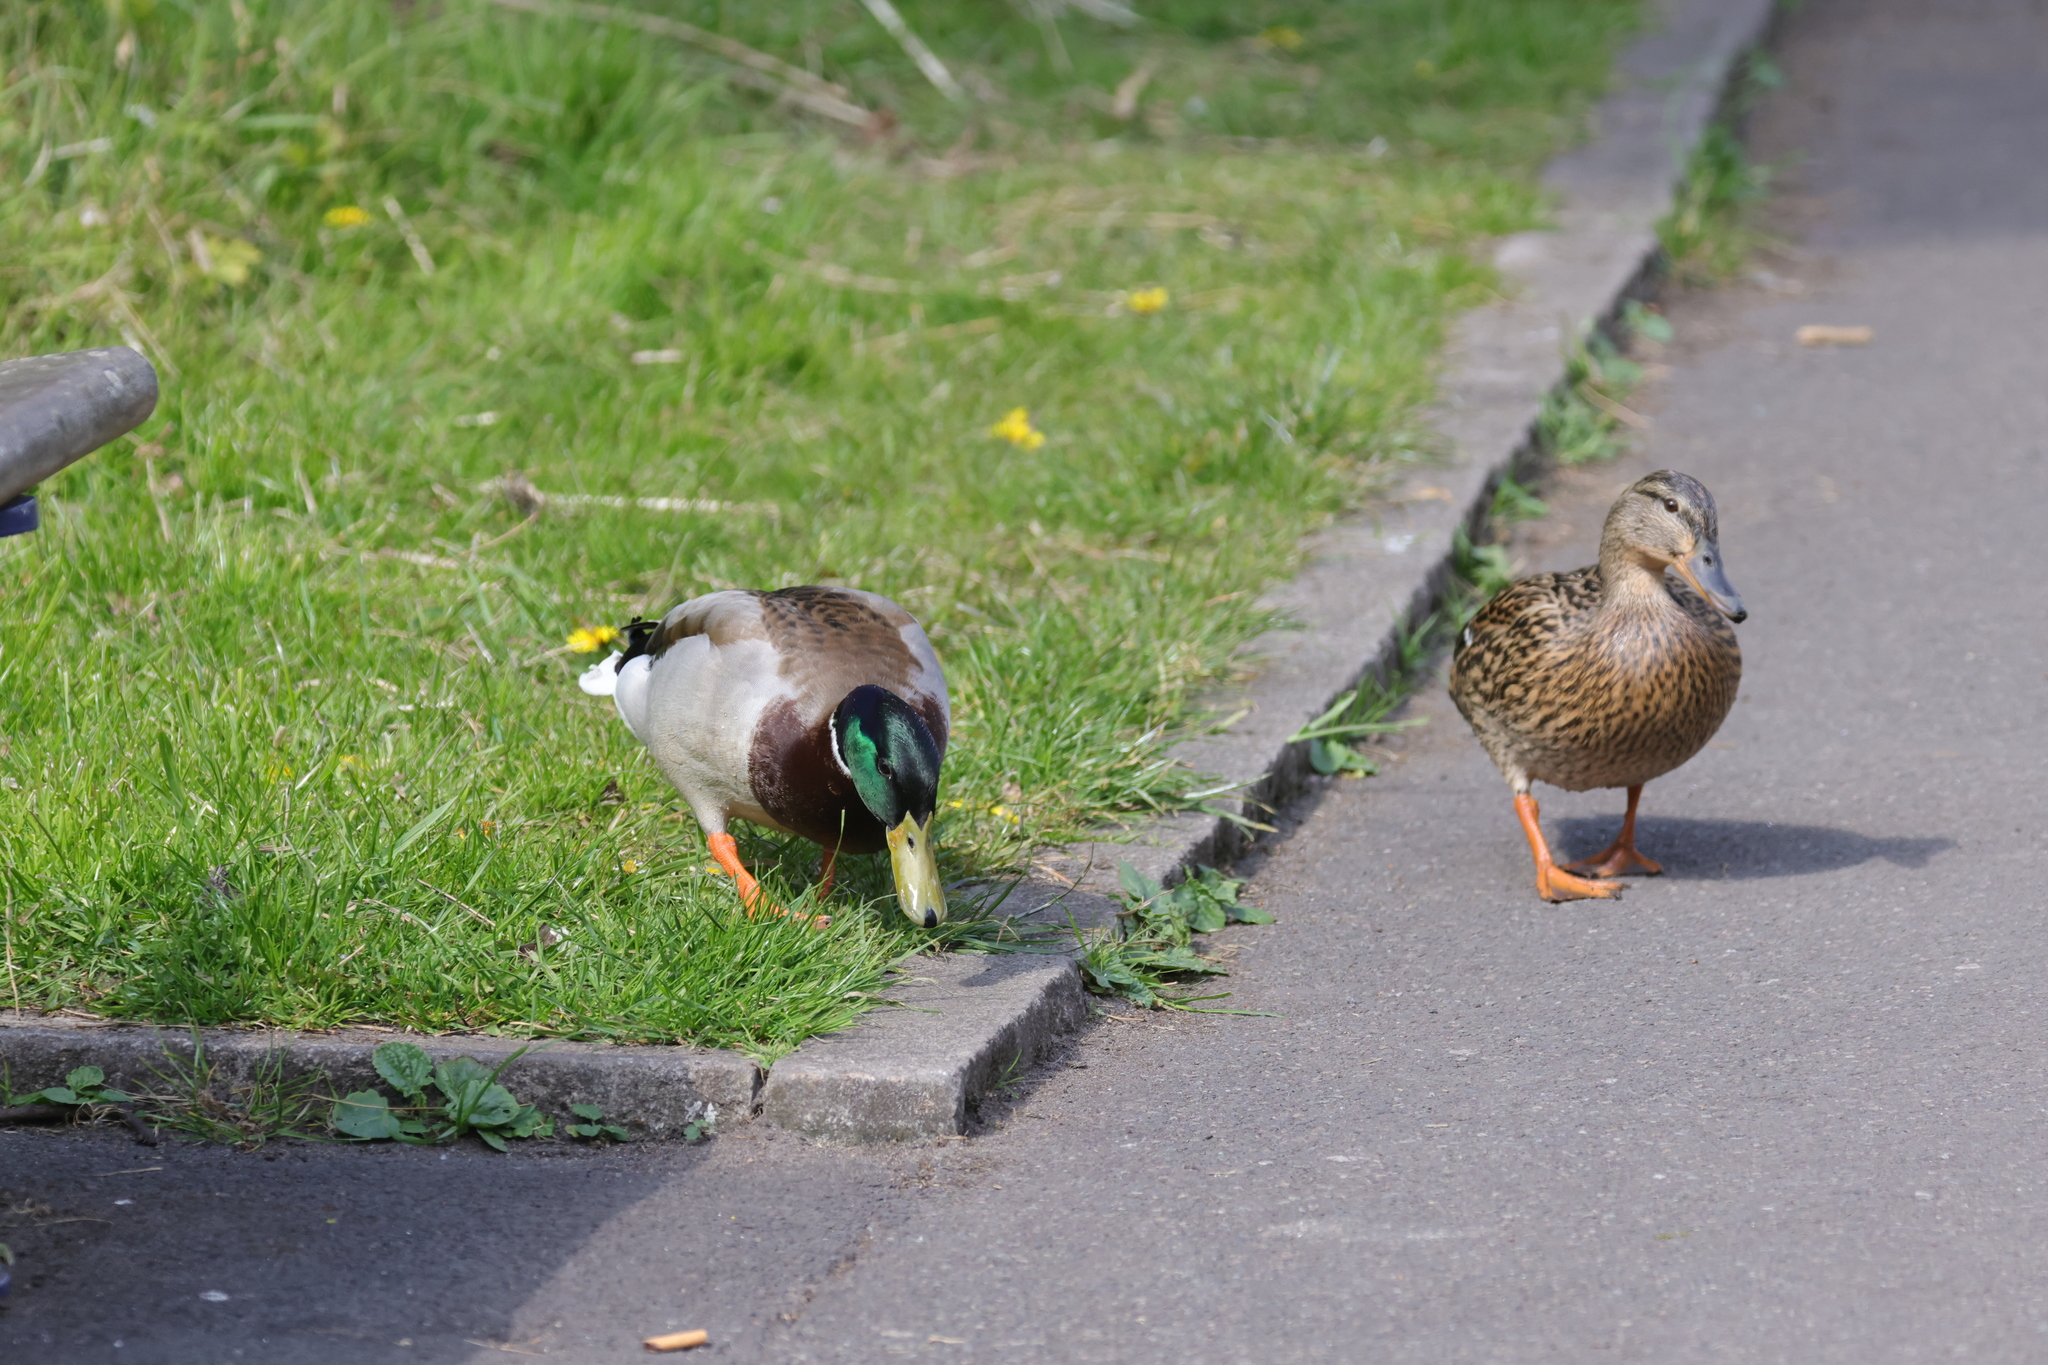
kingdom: Animalia
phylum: Chordata
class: Aves
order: Anseriformes
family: Anatidae
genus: Anas
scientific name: Anas platyrhynchos
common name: Mallard
